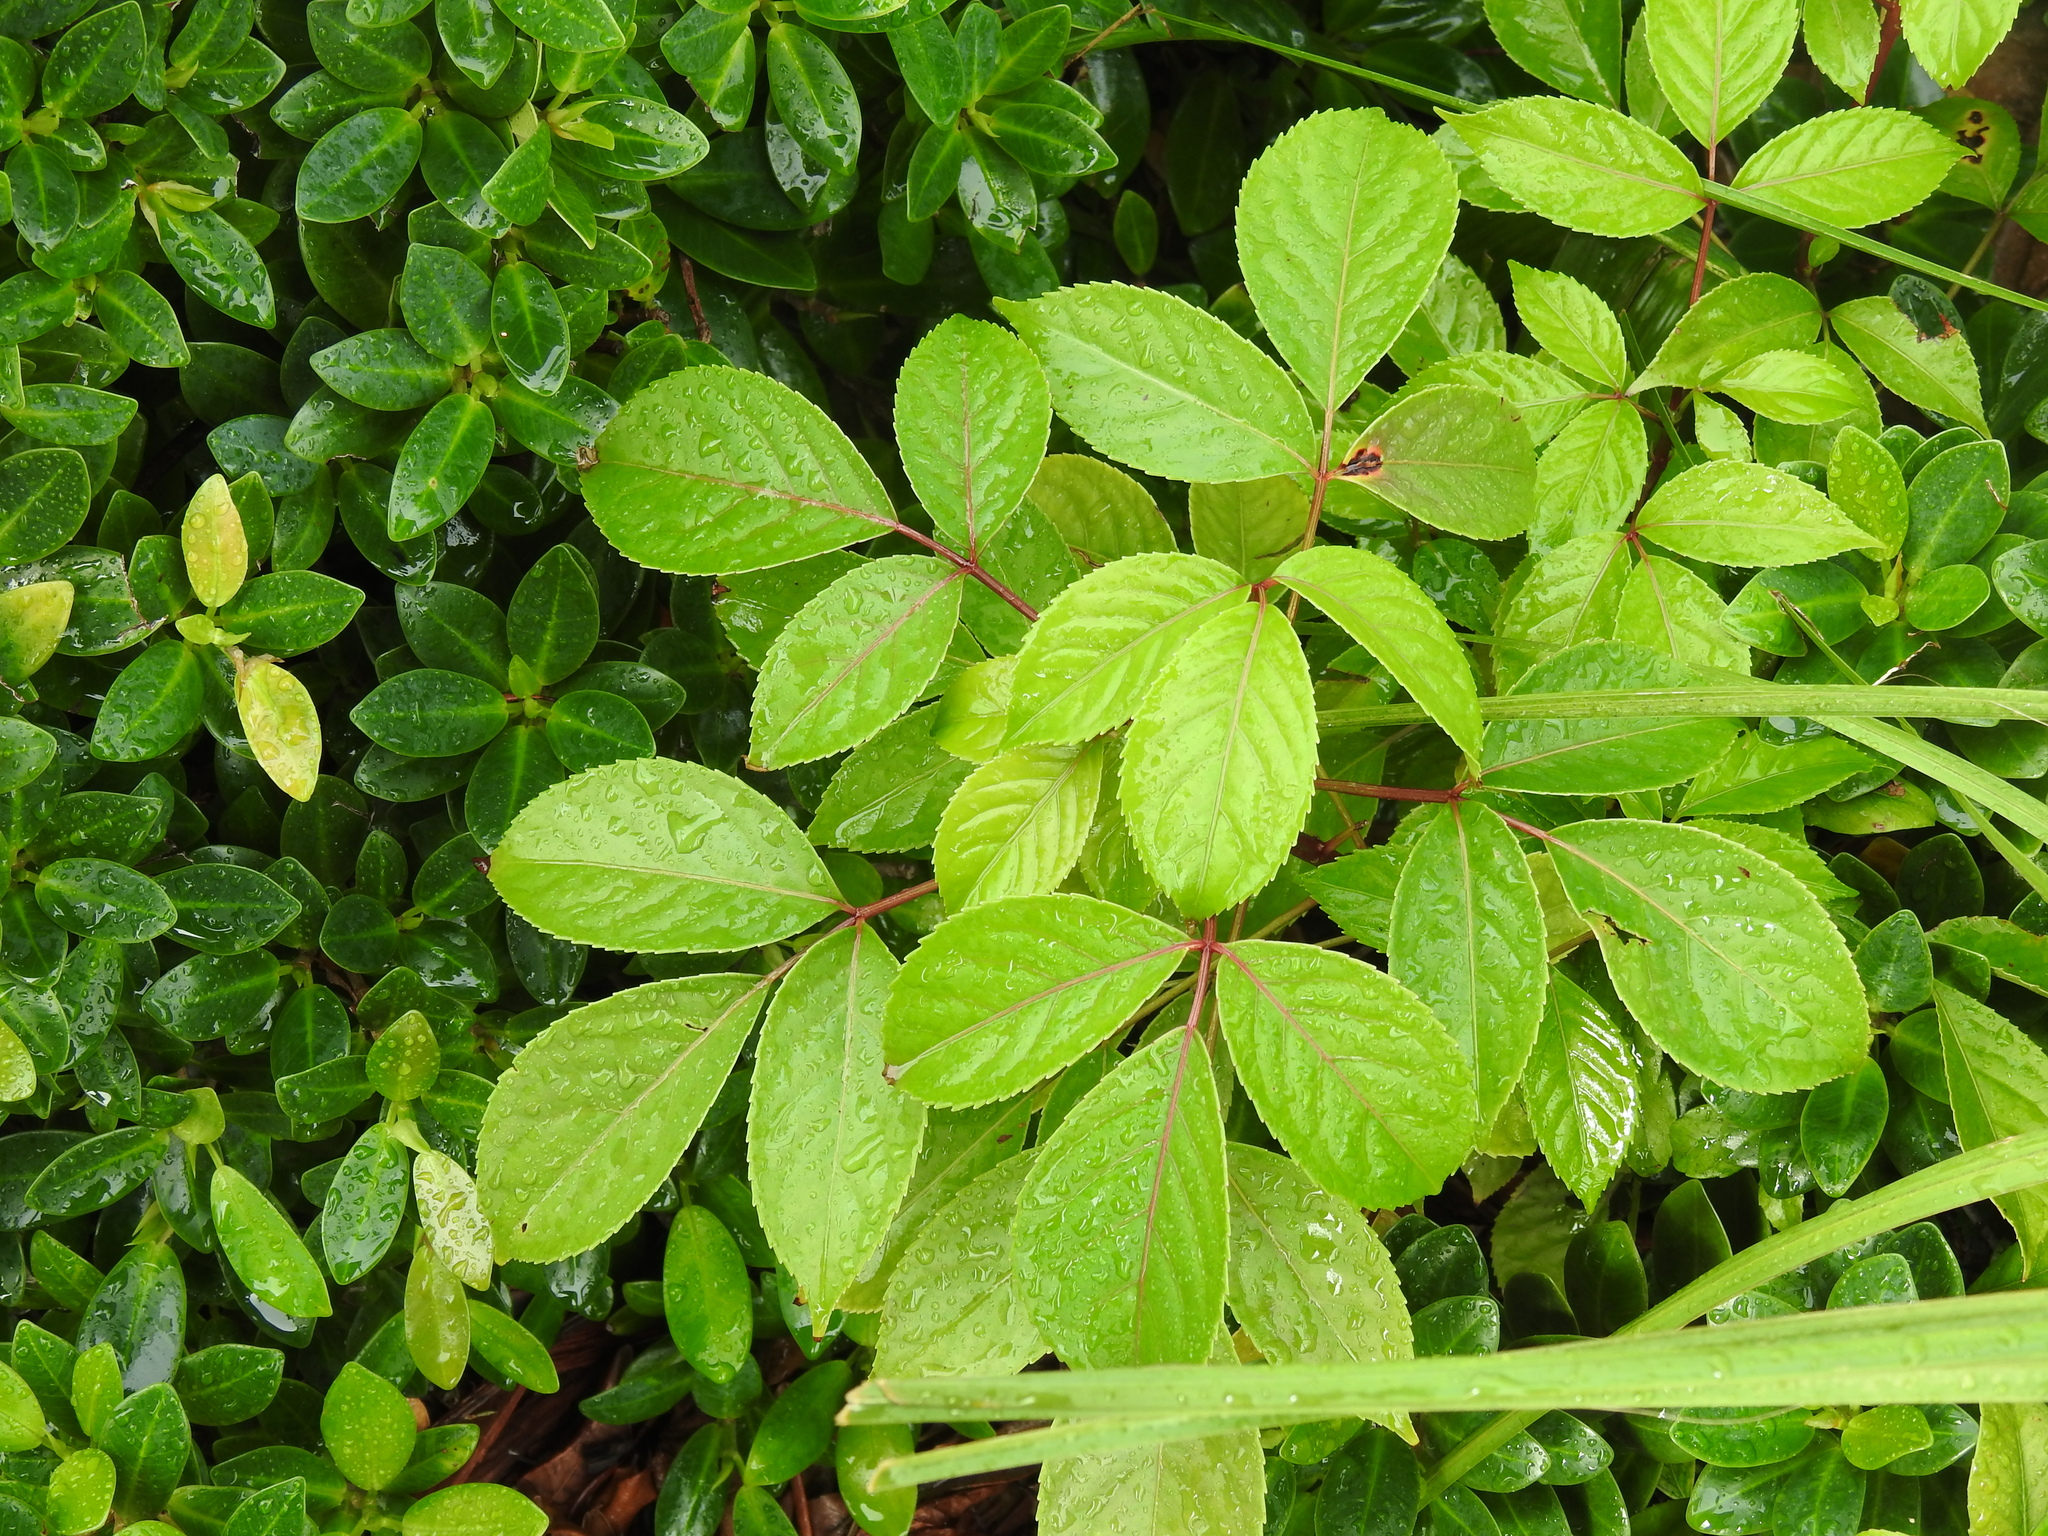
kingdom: Plantae
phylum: Tracheophyta
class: Magnoliopsida
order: Malpighiales
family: Phyllanthaceae
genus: Bischofia
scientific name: Bischofia javanica
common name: Javanese bishopwood
